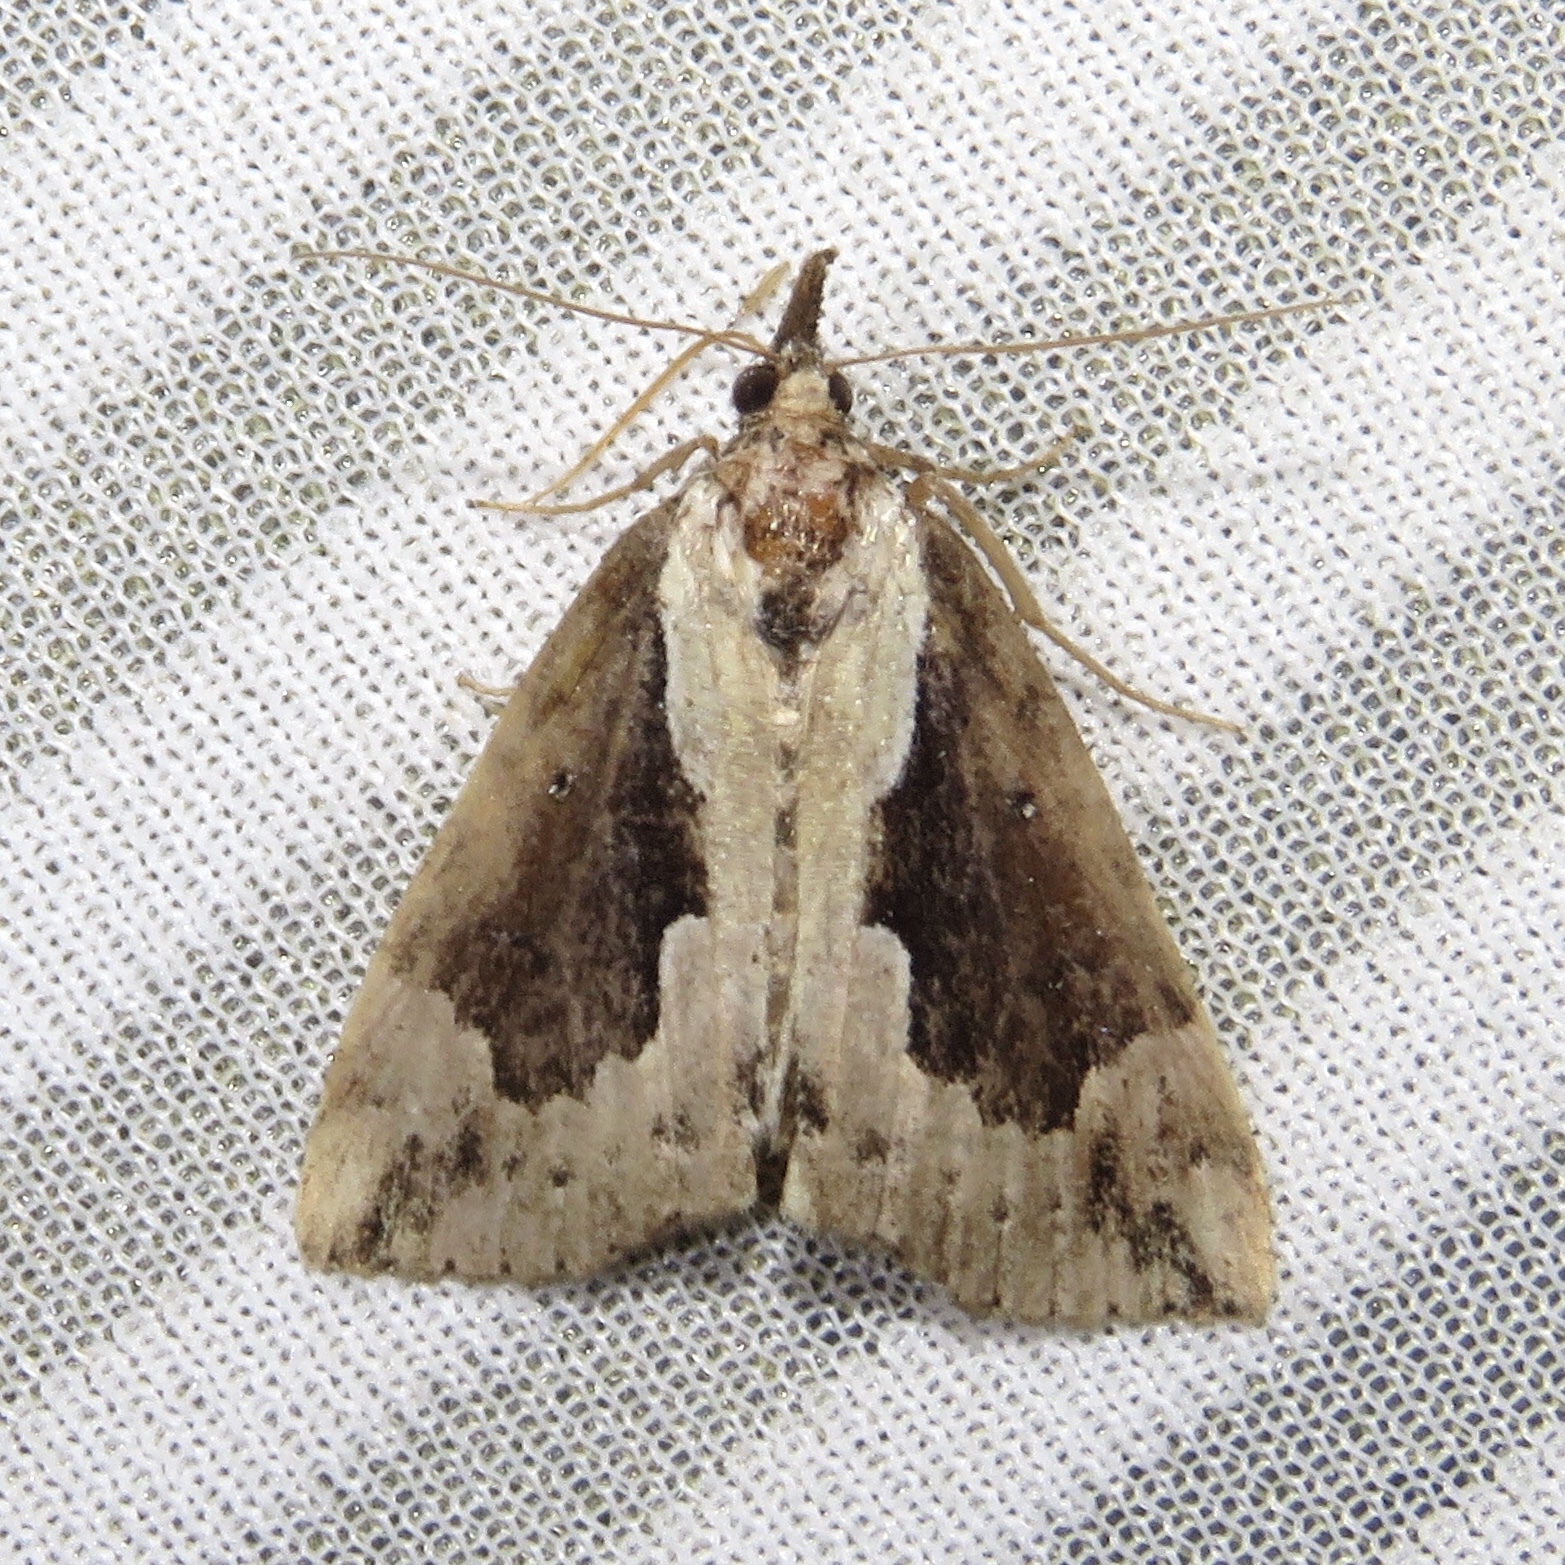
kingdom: Animalia
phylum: Arthropoda
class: Insecta
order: Lepidoptera
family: Erebidae
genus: Hypena
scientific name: Hypena baltimoralis
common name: Baltimore snout
